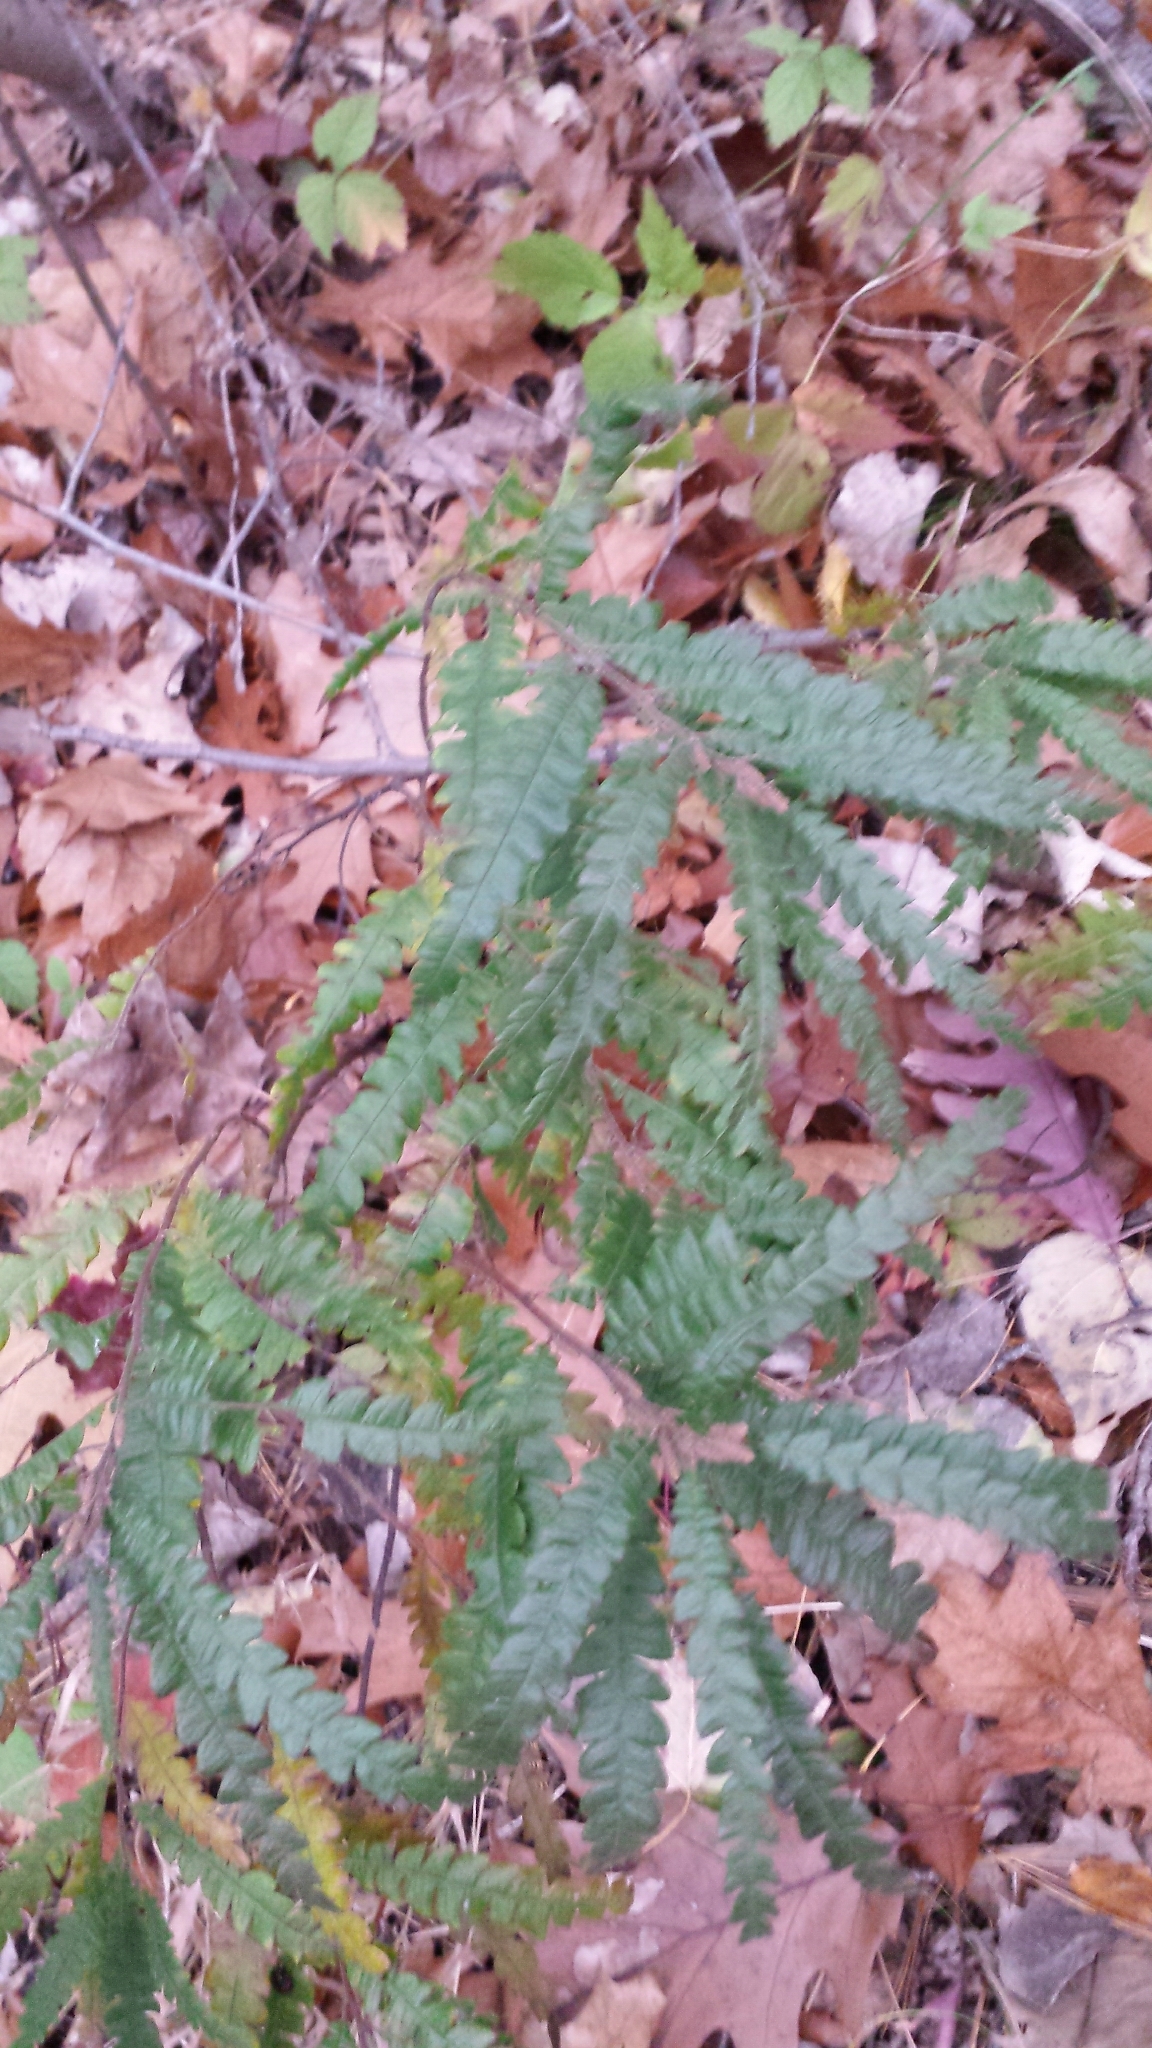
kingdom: Plantae
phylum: Tracheophyta
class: Magnoliopsida
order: Fagales
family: Myricaceae
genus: Comptonia
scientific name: Comptonia peregrina
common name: Sweet-fern
